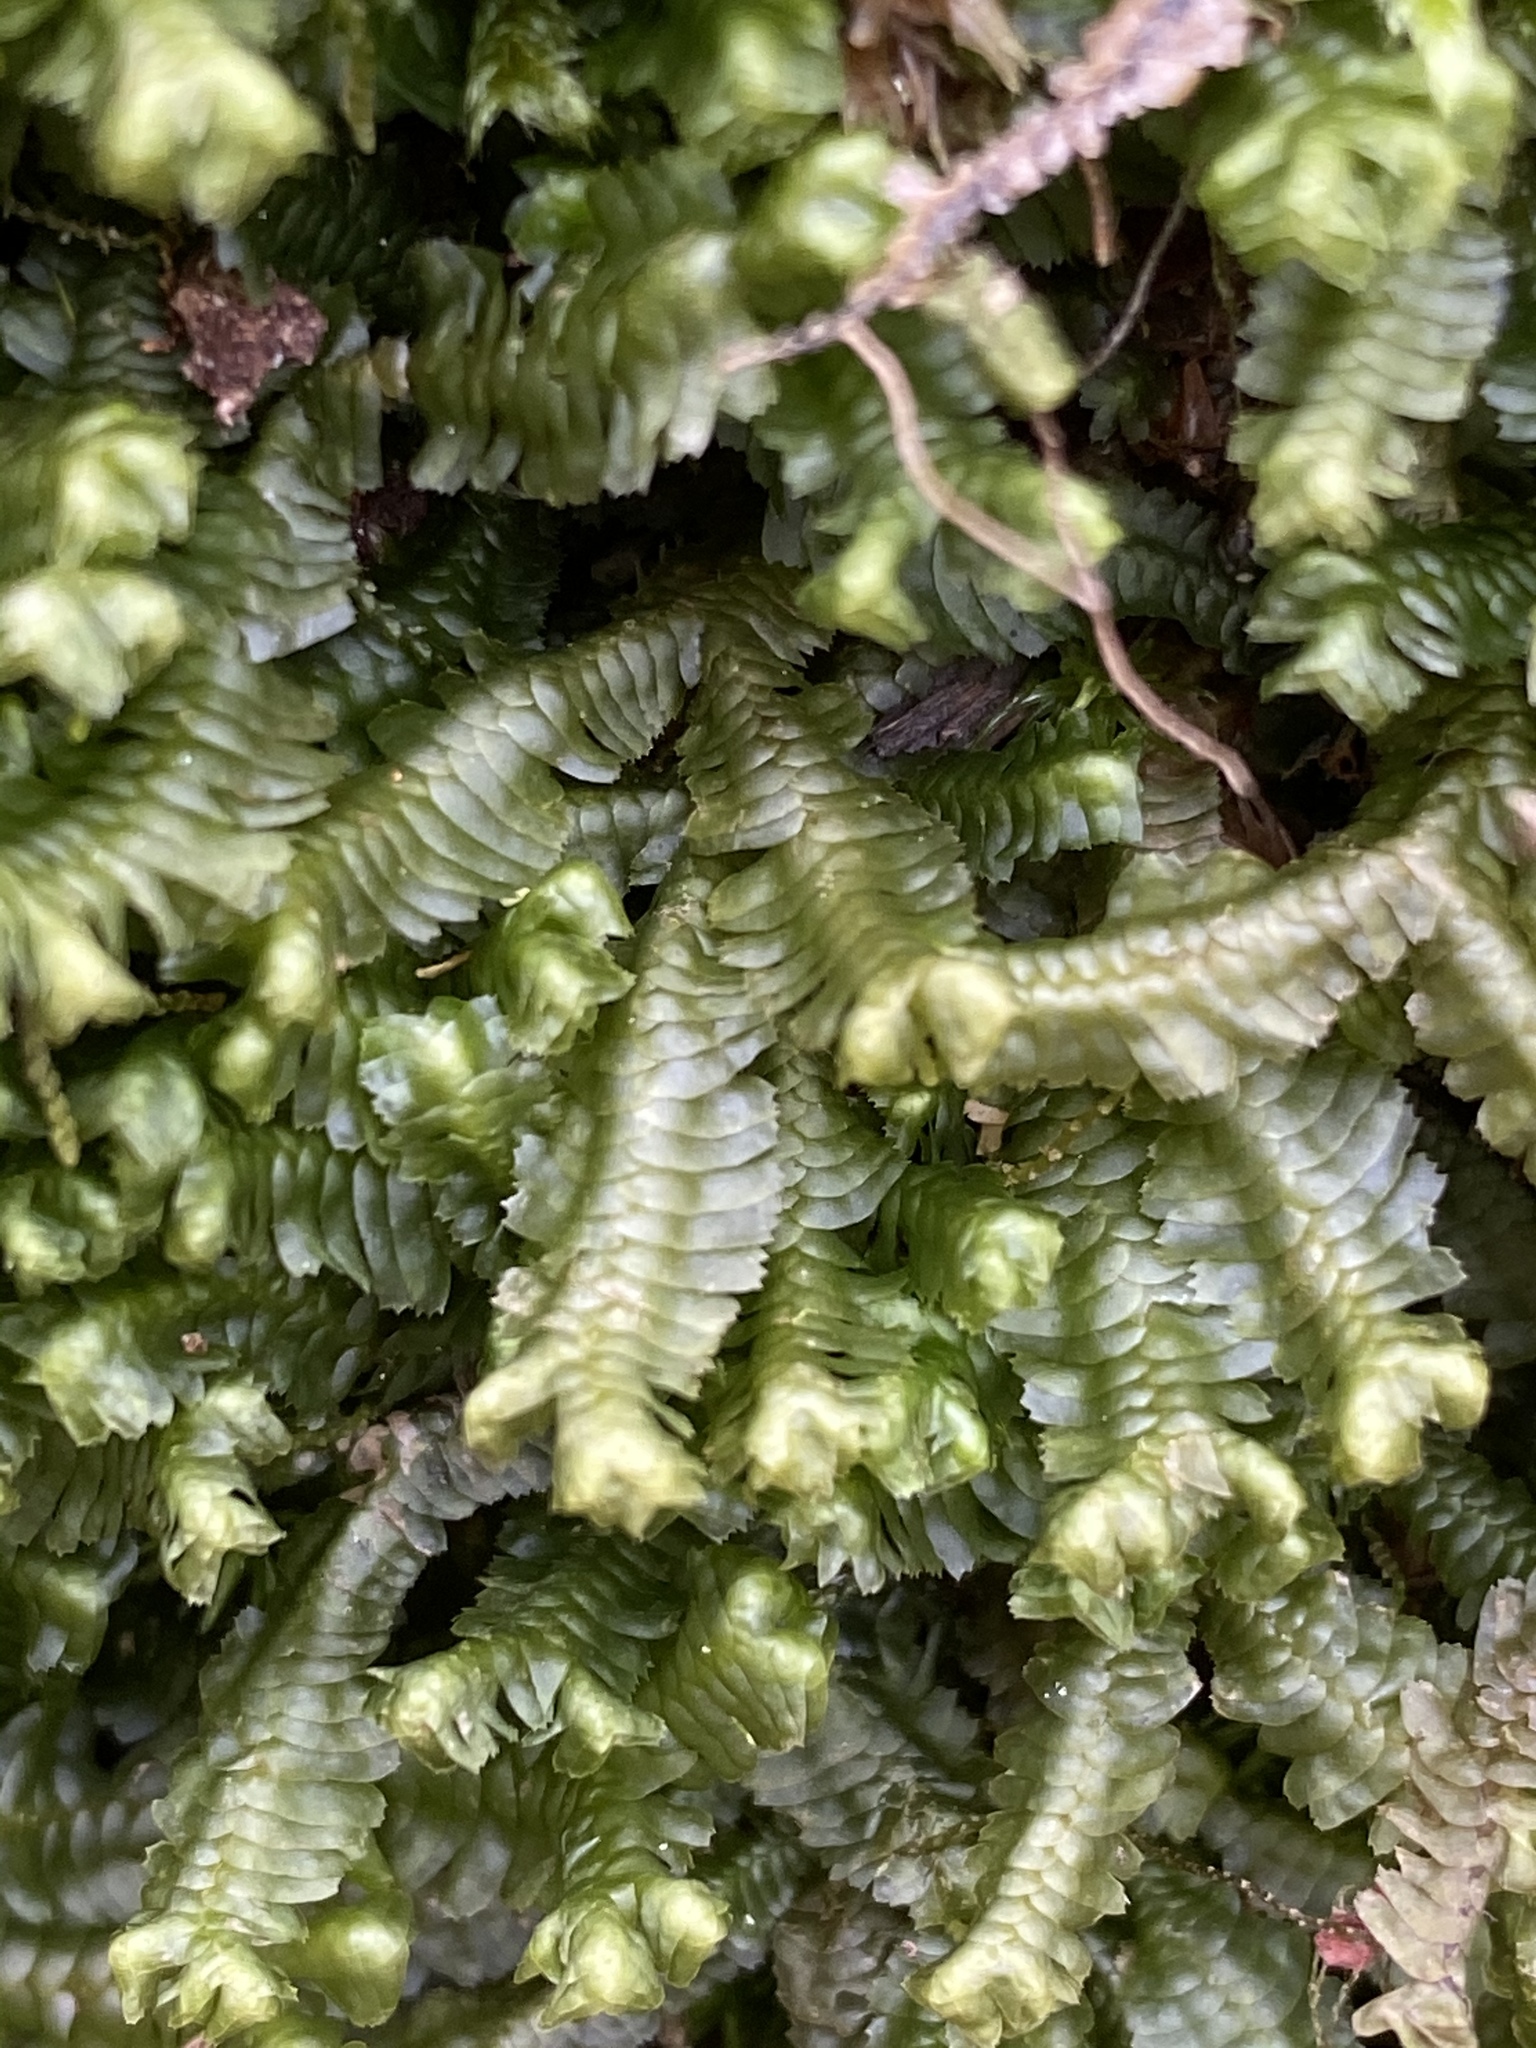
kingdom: Plantae
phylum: Marchantiophyta
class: Jungermanniopsida
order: Jungermanniales
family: Lepidoziaceae
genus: Bazzania
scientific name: Bazzania trilobata
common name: Three-lobed whipwort
